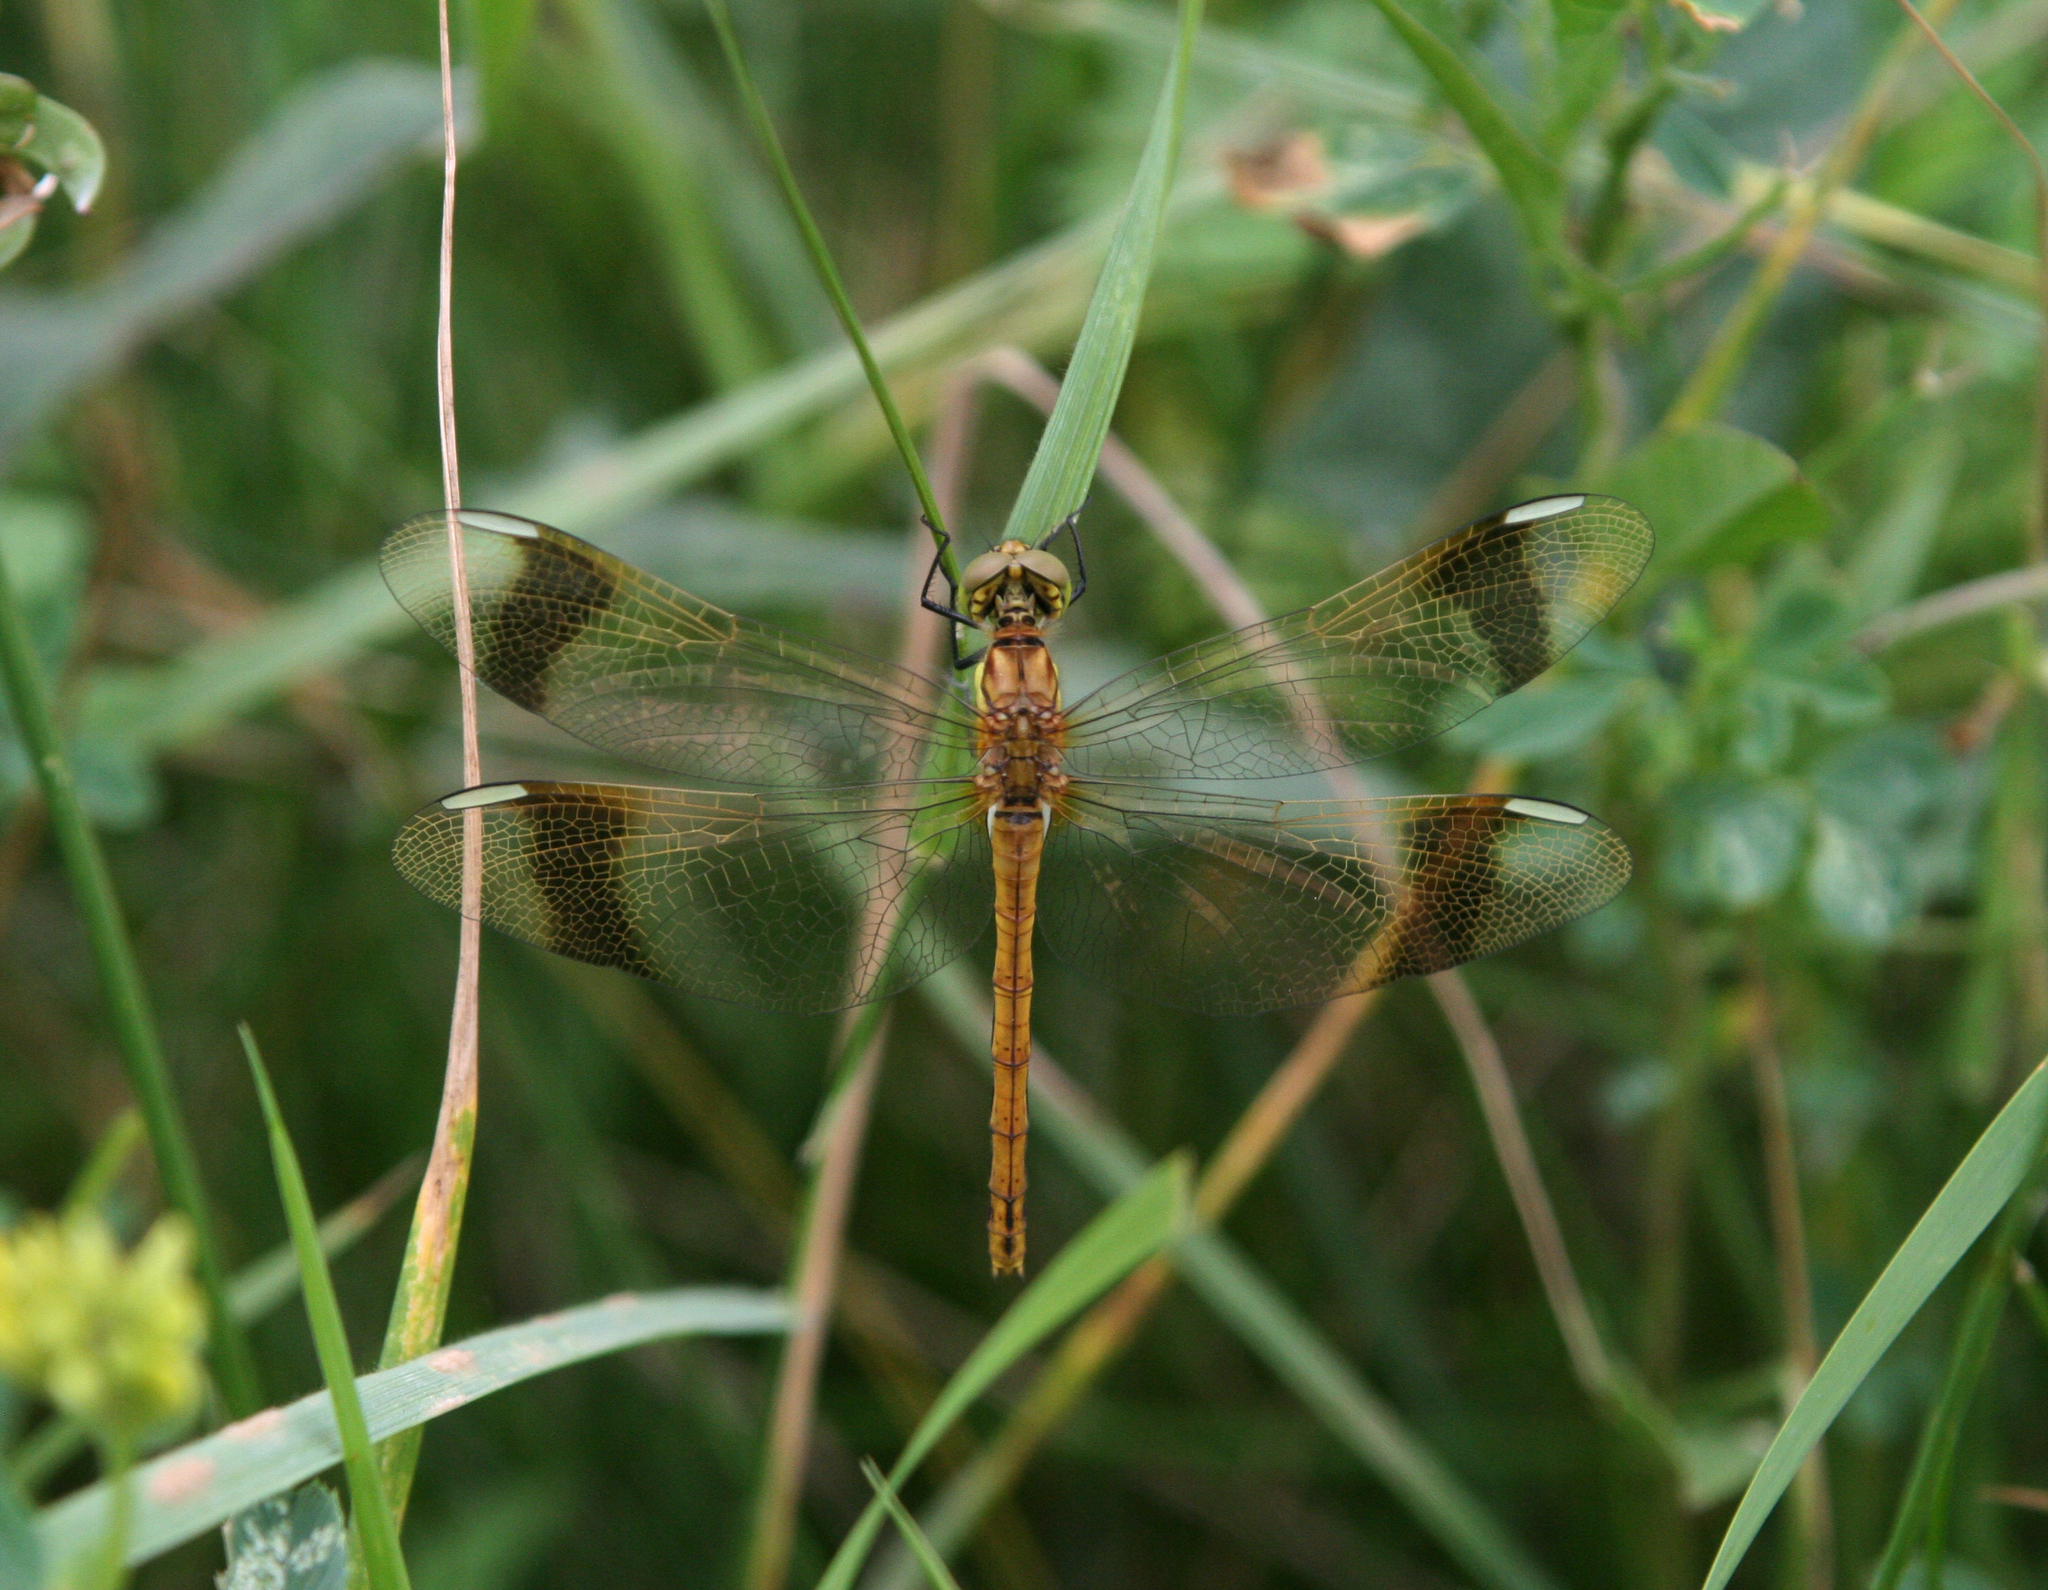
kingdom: Animalia
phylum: Arthropoda
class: Insecta
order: Odonata
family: Libellulidae
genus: Sympetrum
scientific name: Sympetrum pedemontanum
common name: Banded darter
